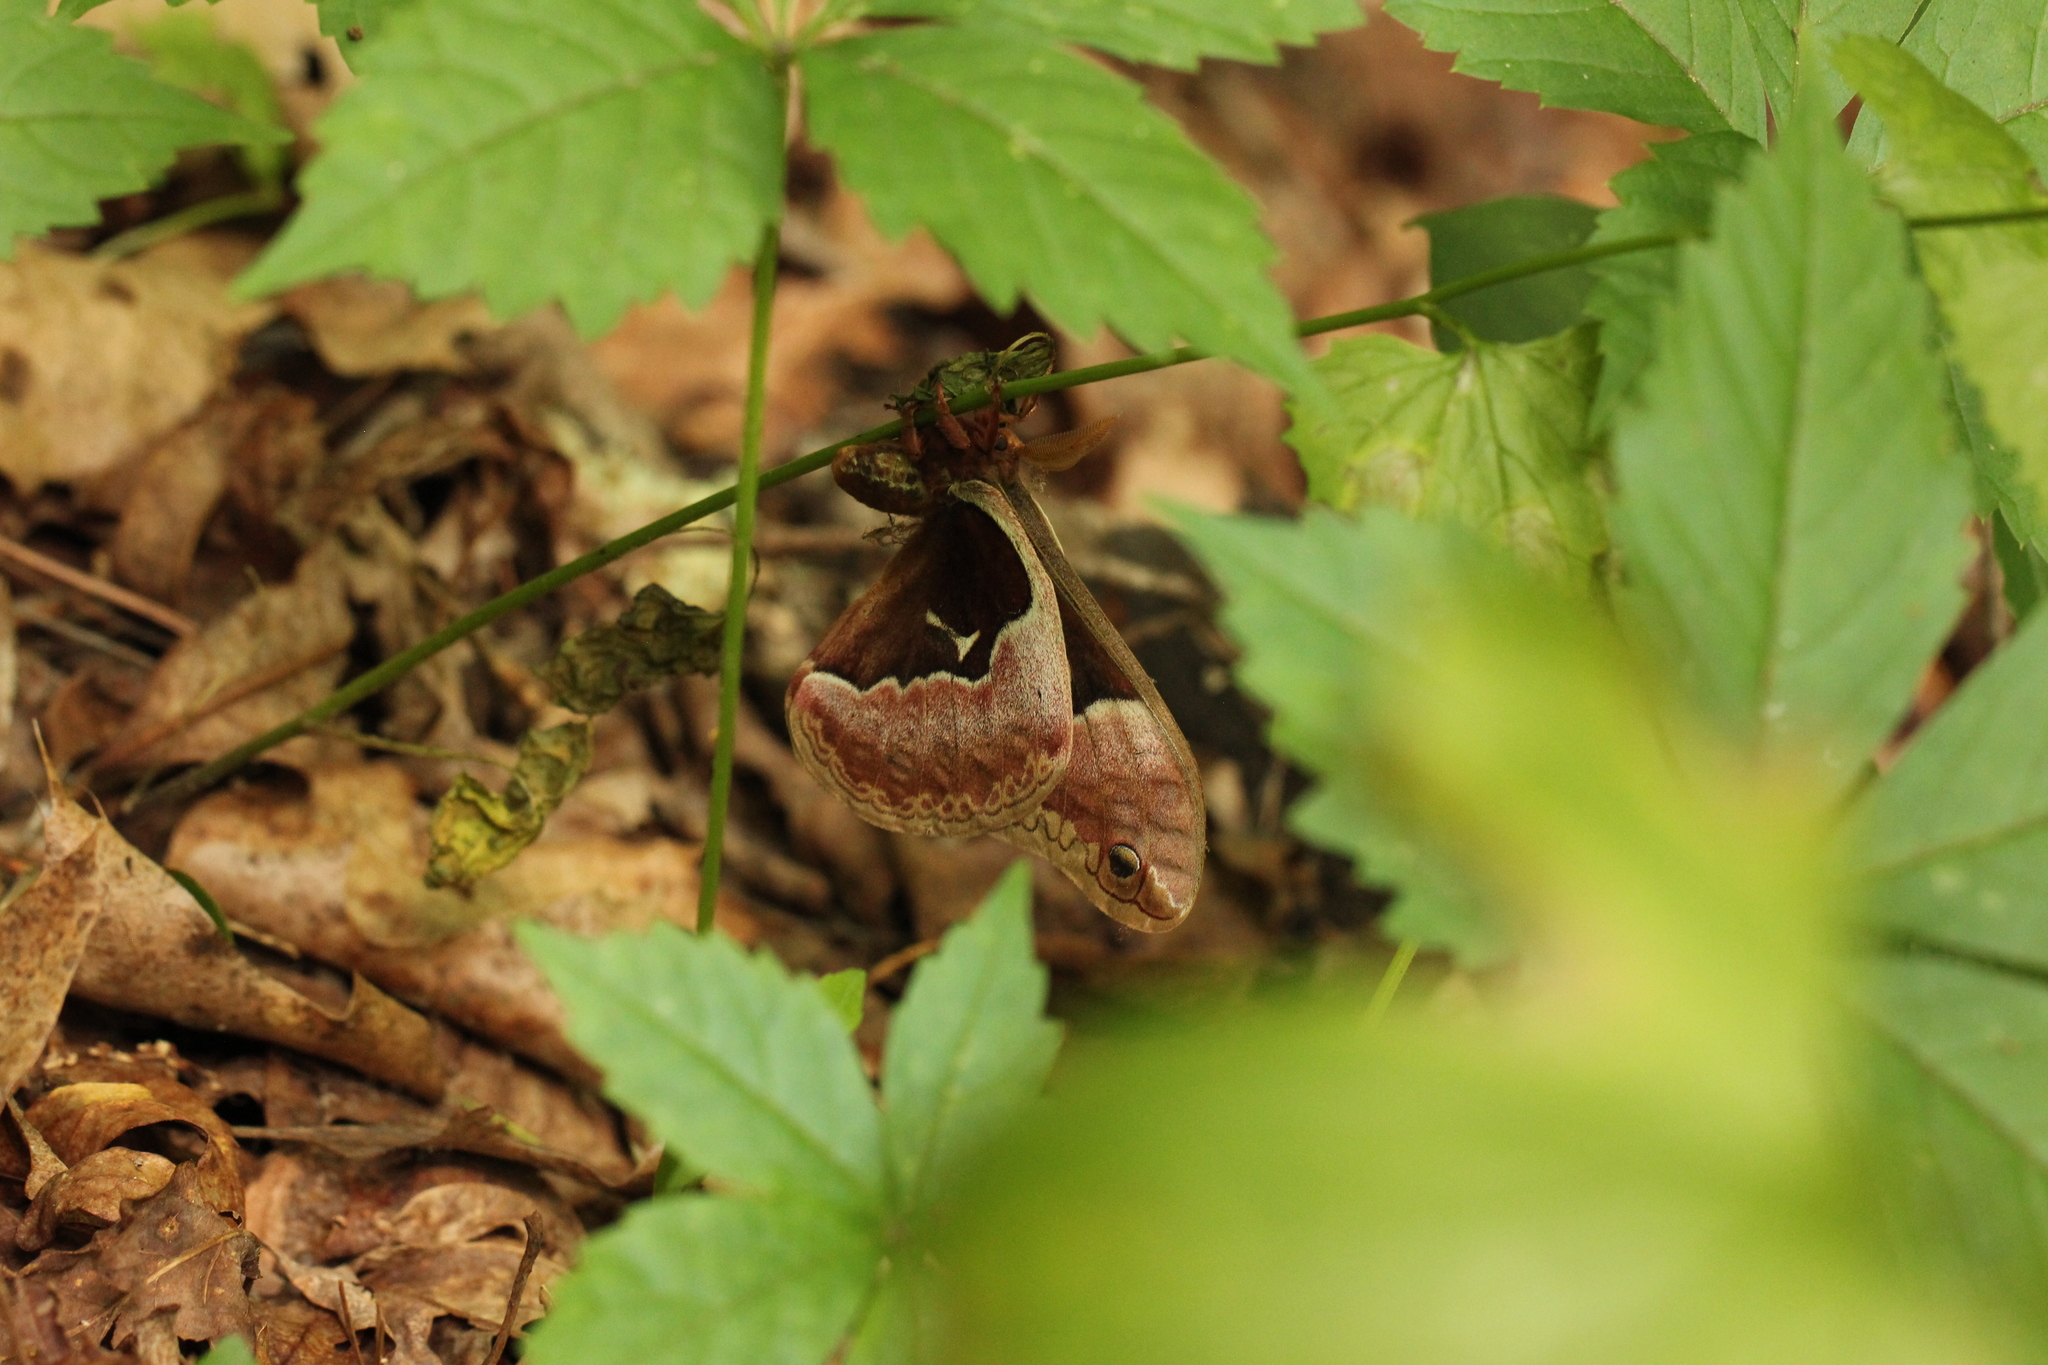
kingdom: Animalia
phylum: Arthropoda
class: Insecta
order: Lepidoptera
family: Saturniidae
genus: Callosamia
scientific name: Callosamia angulifera
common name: Tulip tree silkmoth
